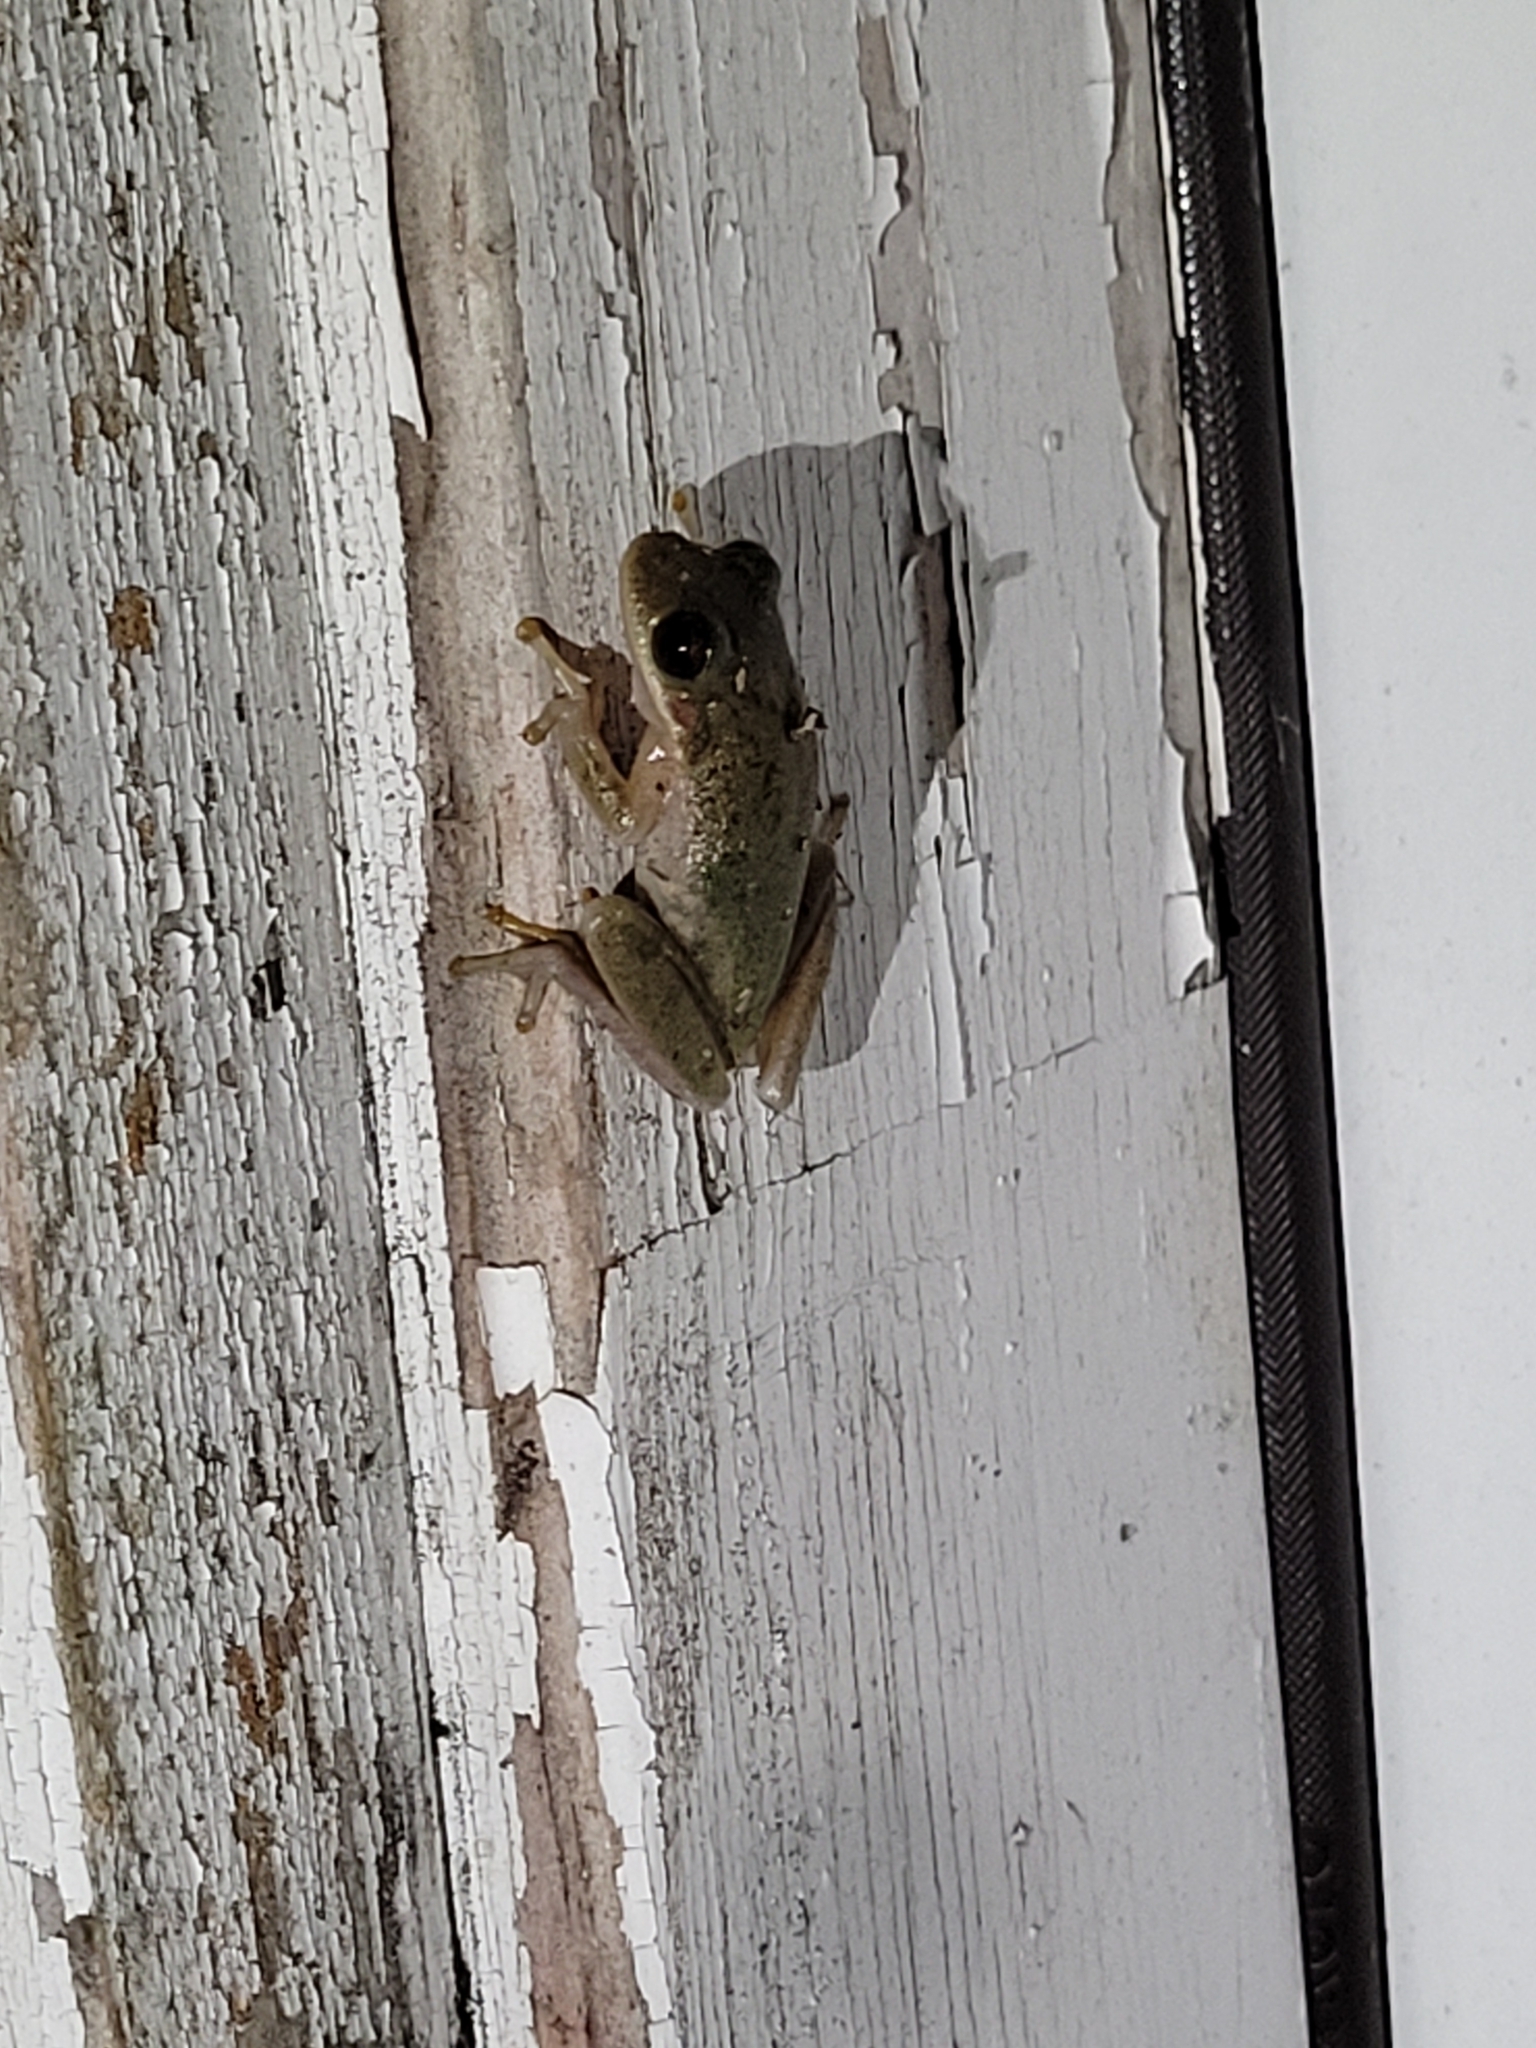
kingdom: Animalia
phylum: Chordata
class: Amphibia
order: Anura
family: Hylidae
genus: Dryophytes
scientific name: Dryophytes squirellus
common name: Squirrel treefrog
